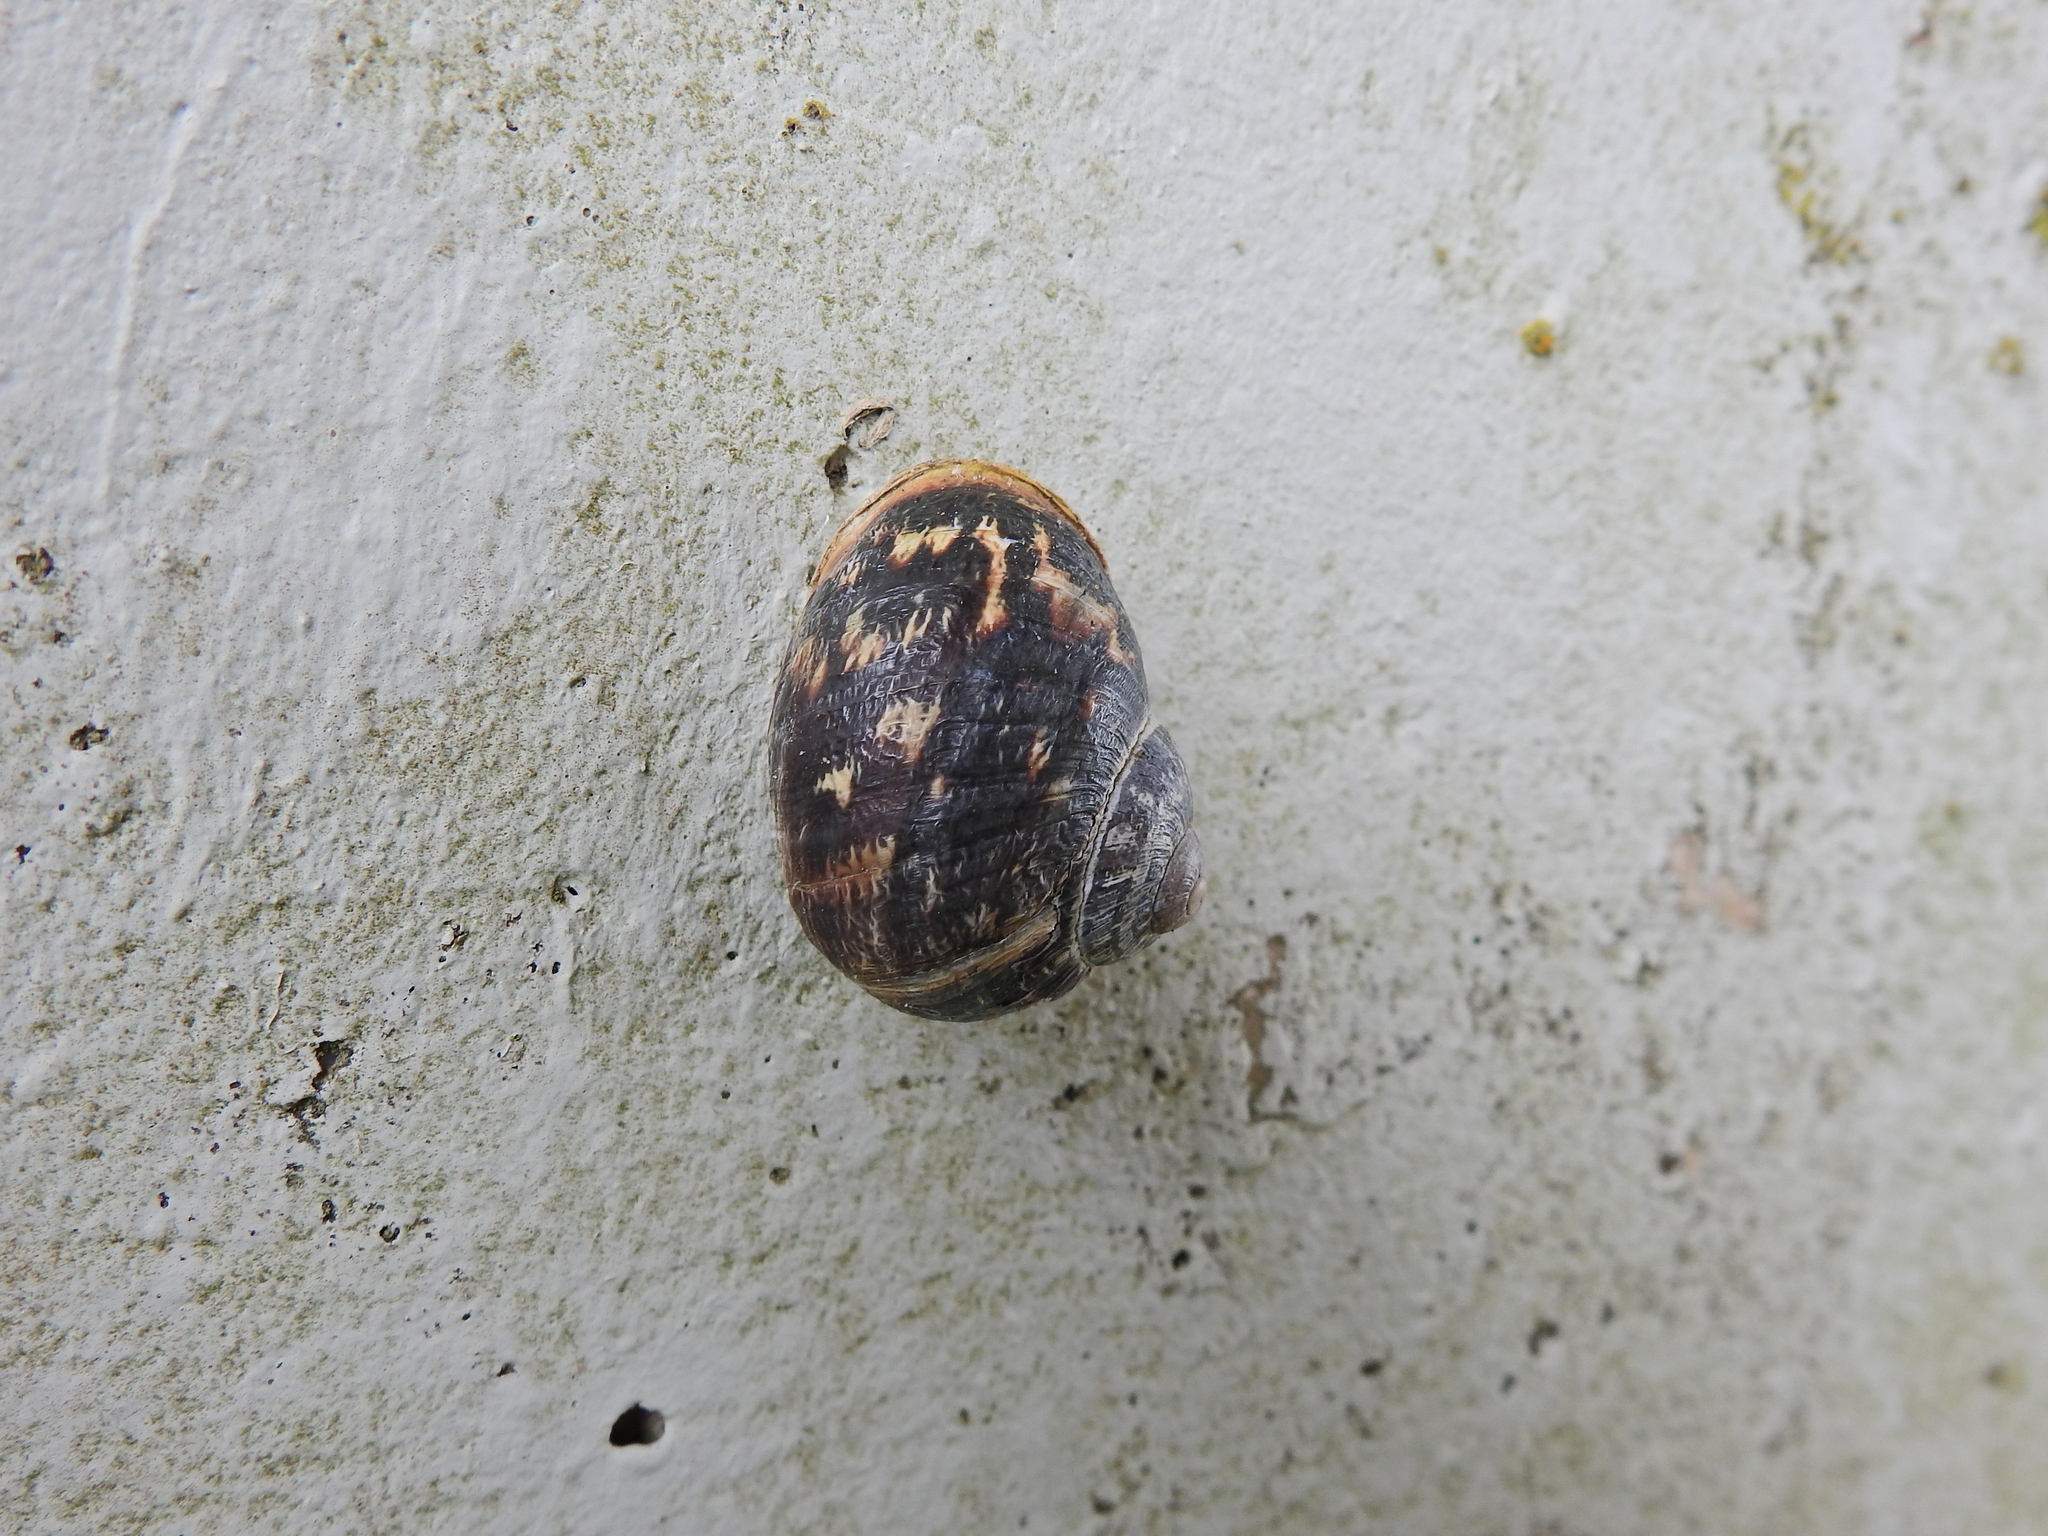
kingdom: Animalia
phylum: Mollusca
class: Gastropoda
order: Stylommatophora
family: Helicidae
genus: Cornu
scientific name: Cornu aspersum
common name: Brown garden snail
